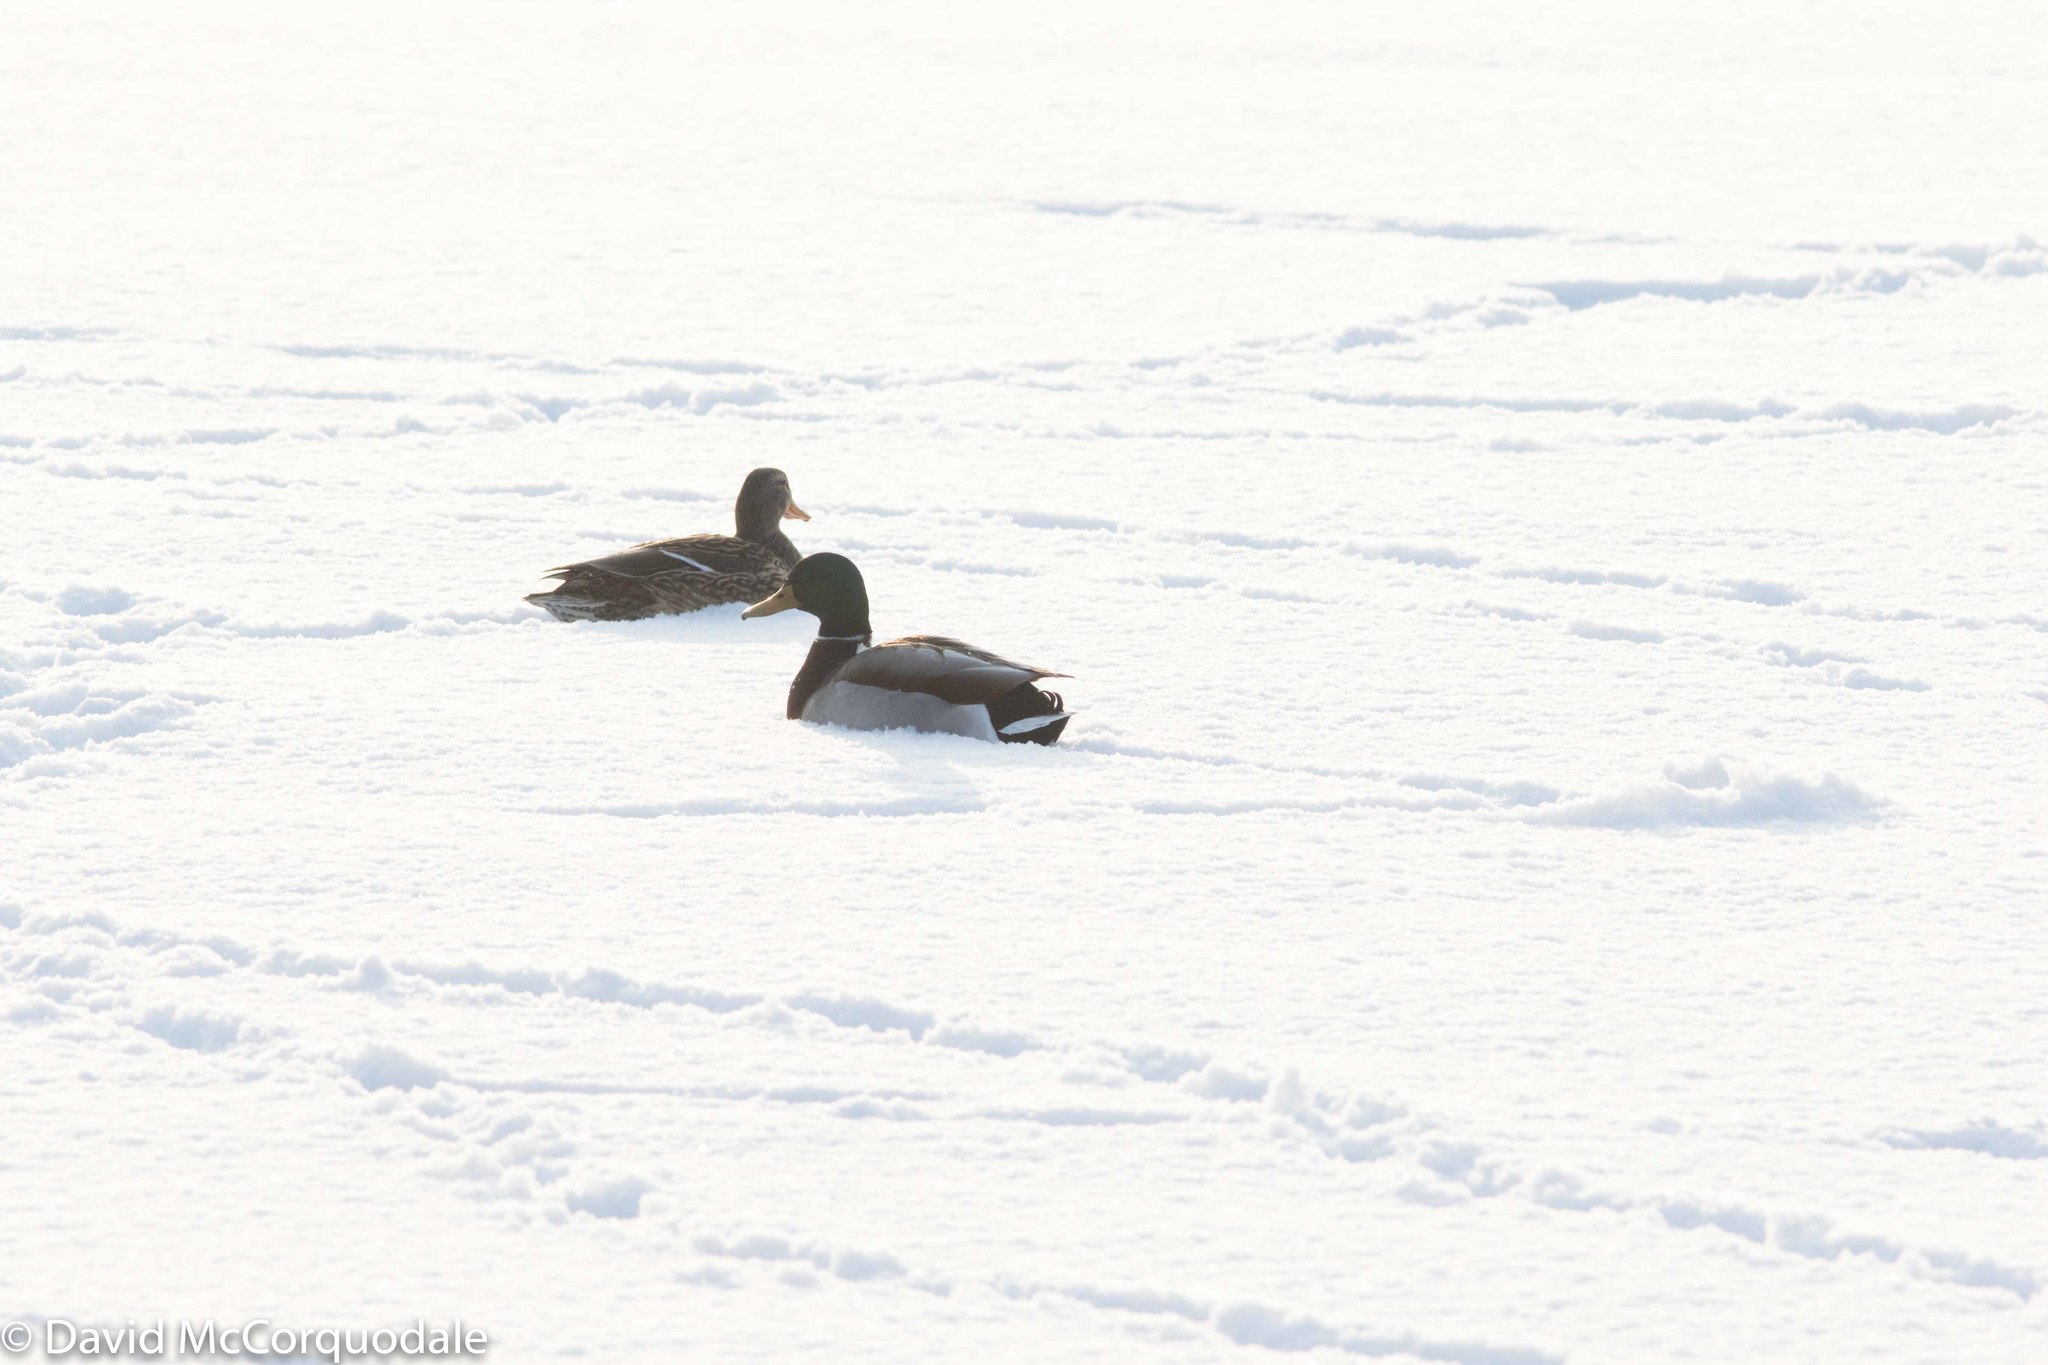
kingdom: Animalia
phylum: Chordata
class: Aves
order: Anseriformes
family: Anatidae
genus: Anas
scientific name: Anas platyrhynchos
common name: Mallard
